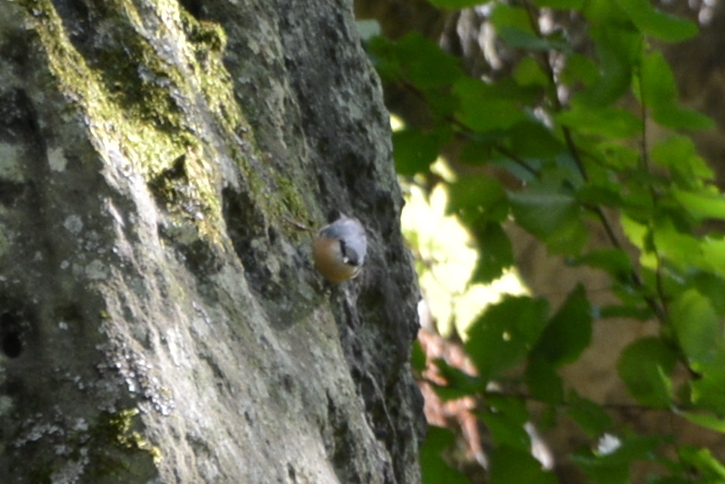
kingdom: Animalia
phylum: Chordata
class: Aves
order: Passeriformes
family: Sittidae
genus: Sitta
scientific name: Sitta europaea
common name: Eurasian nuthatch
